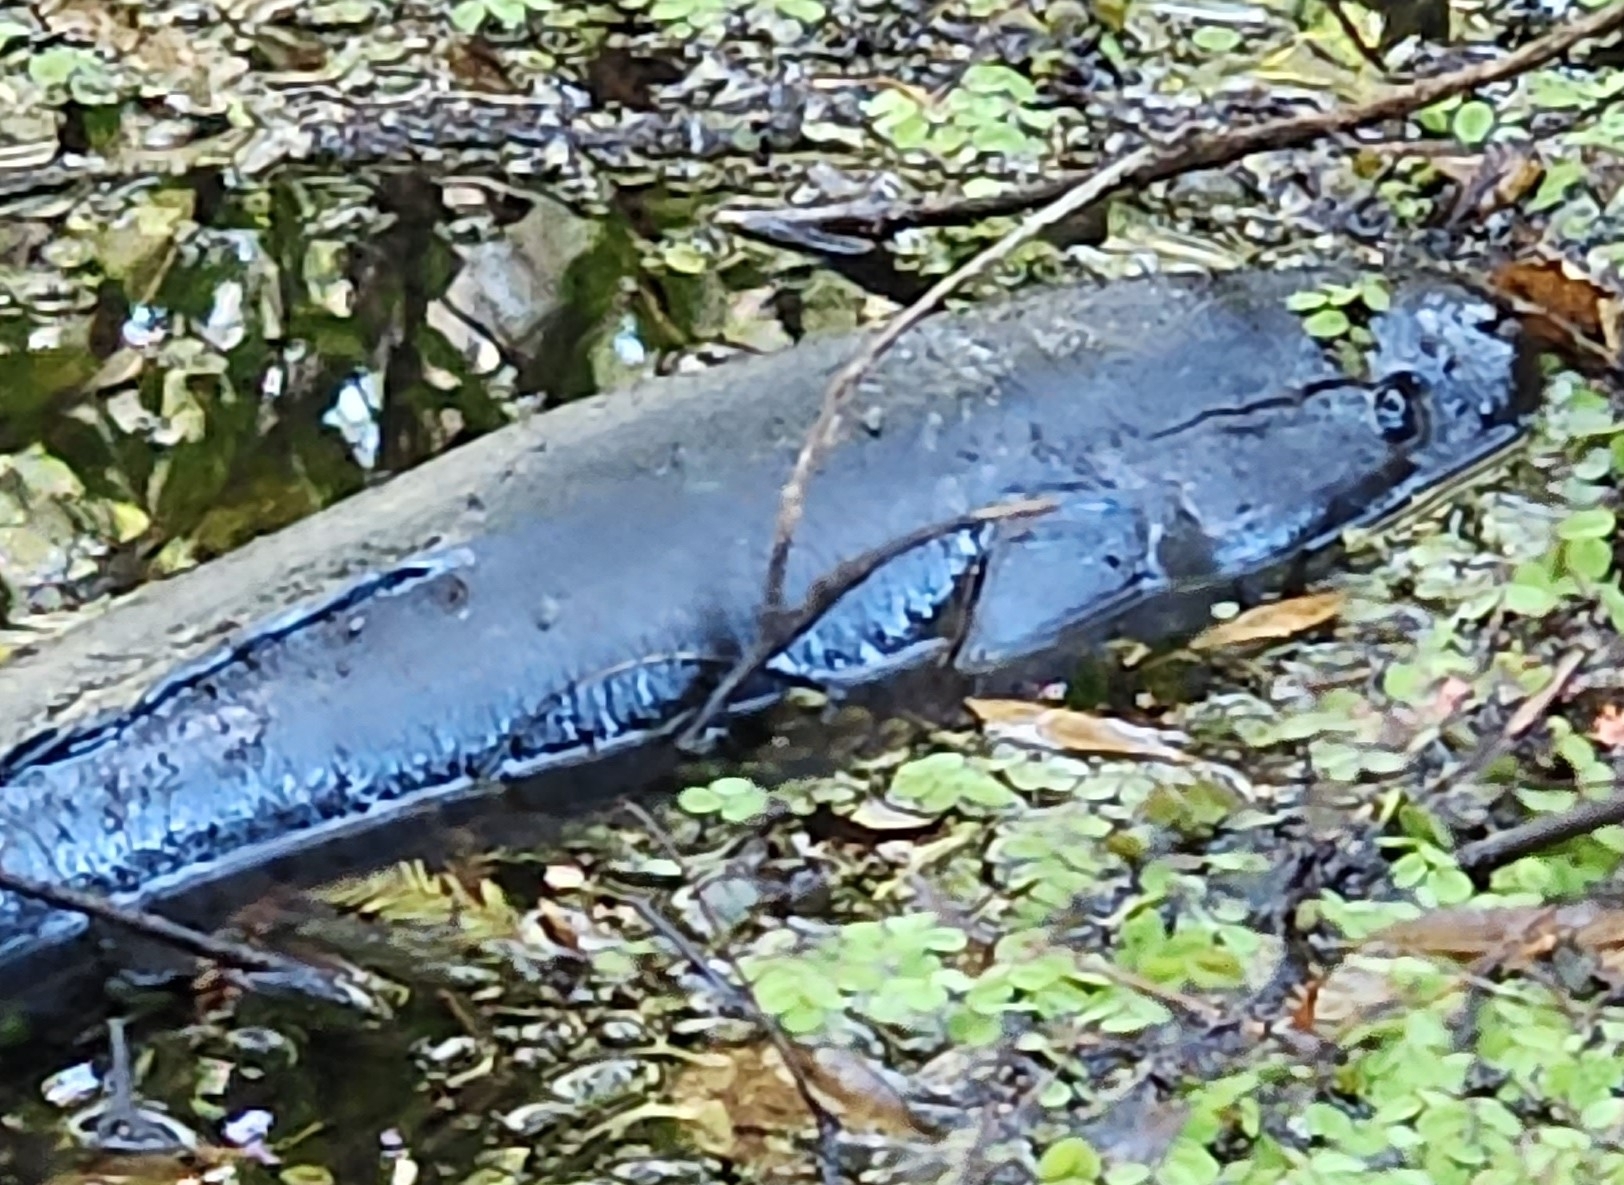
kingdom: Animalia
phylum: Chordata
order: Amiiformes
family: Amiidae
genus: Amia
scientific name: Amia calva
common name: Bowfin
